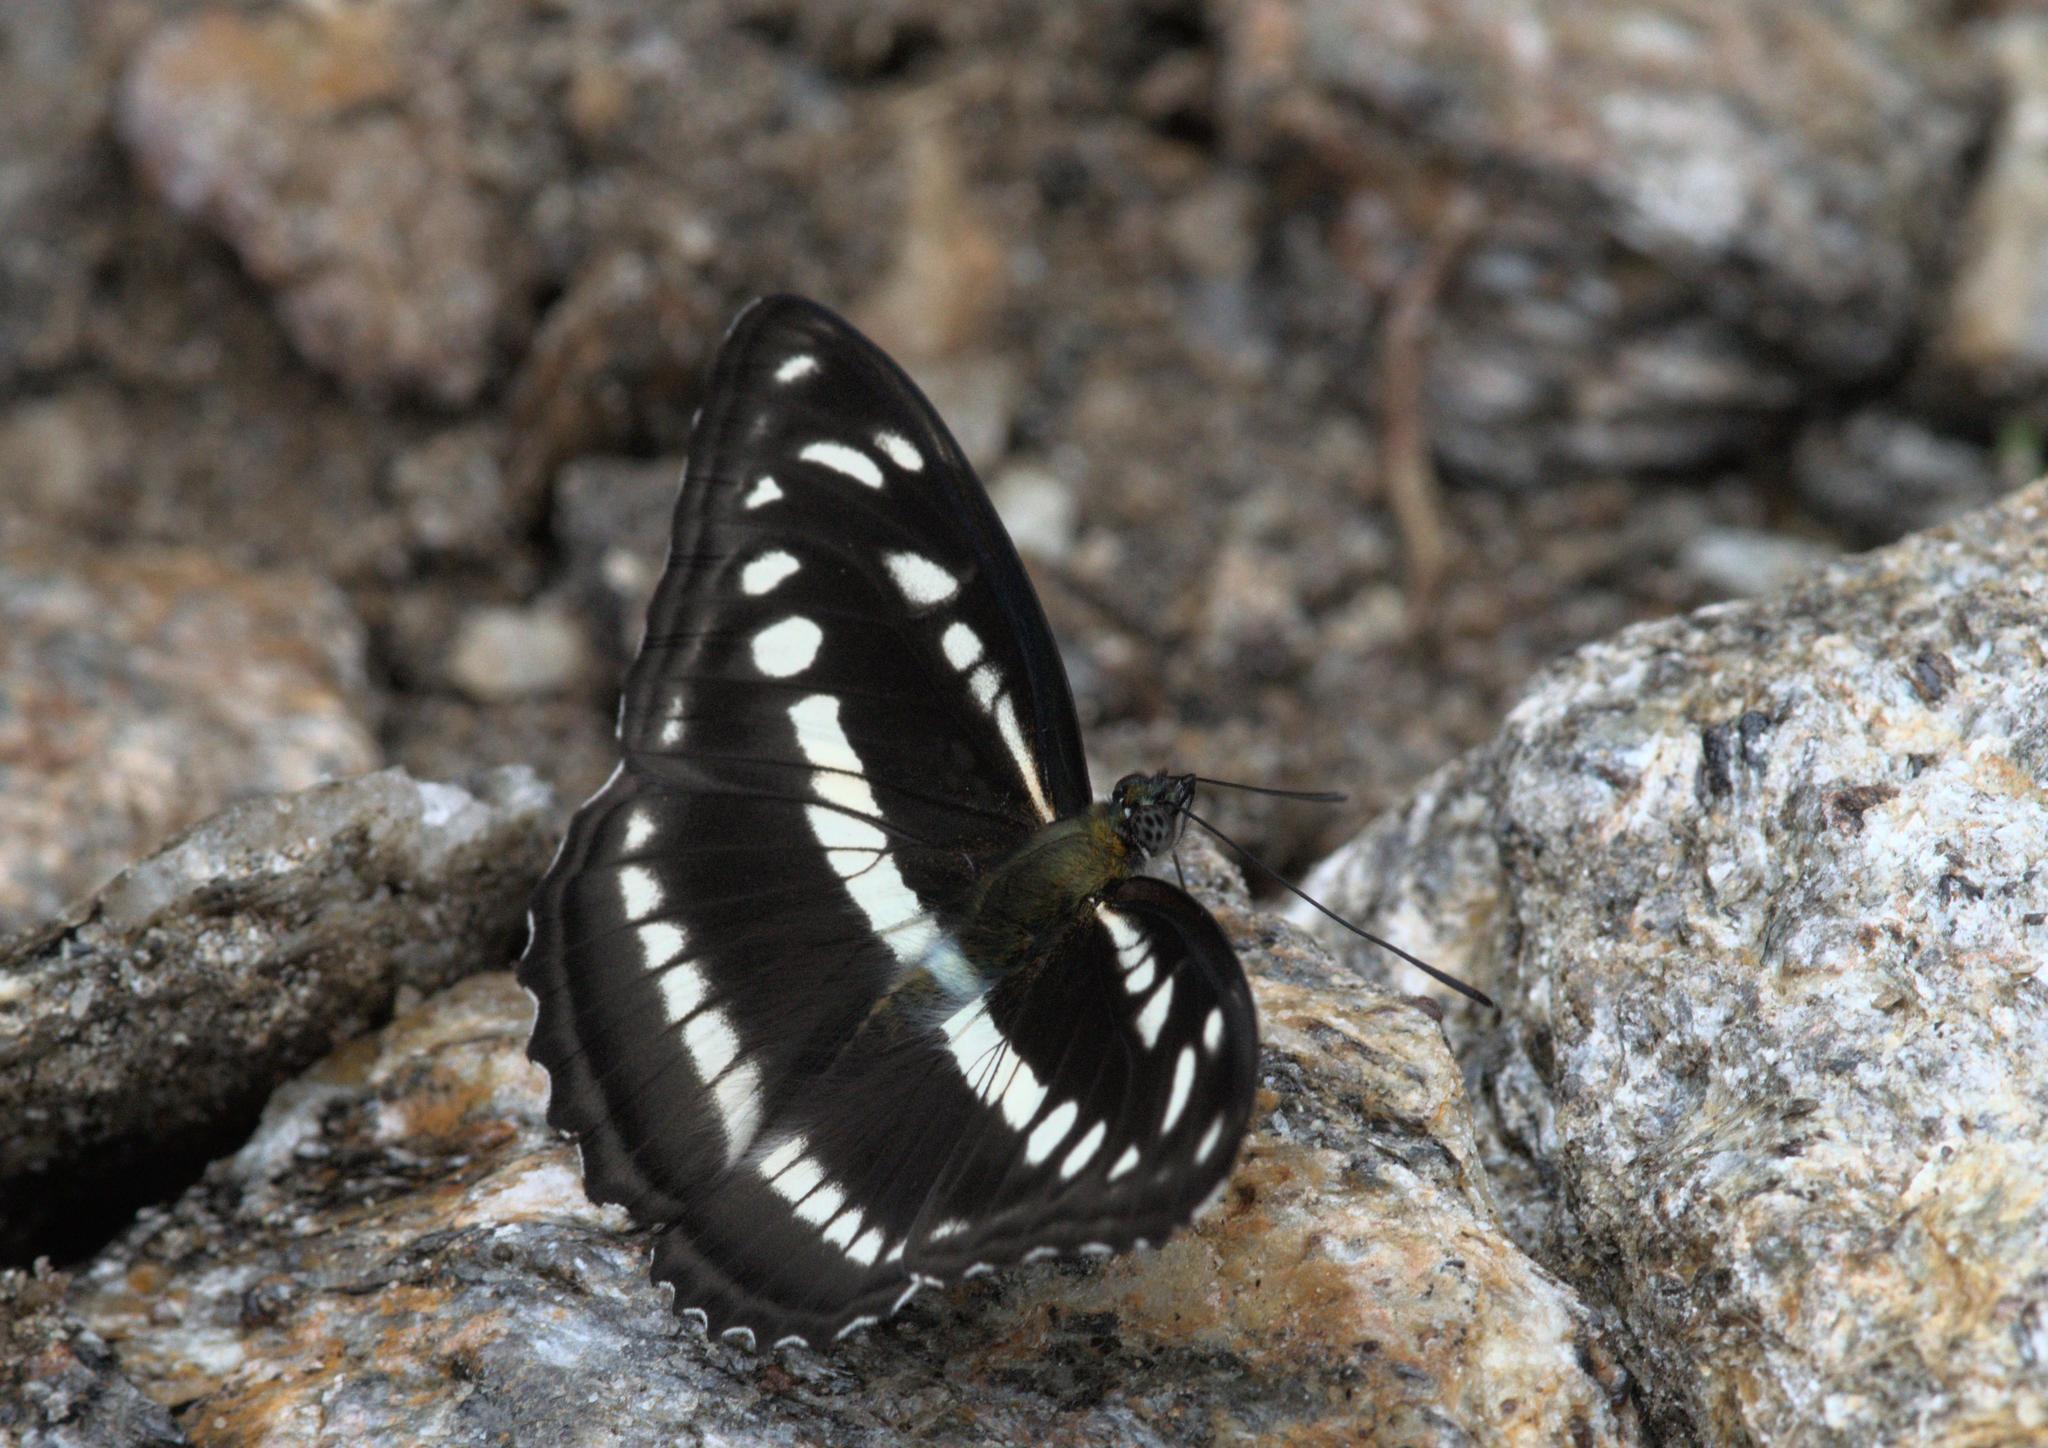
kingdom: Animalia
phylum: Arthropoda
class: Insecta
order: Lepidoptera
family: Nymphalidae
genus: Parathyma
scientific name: Parathyma opalina
